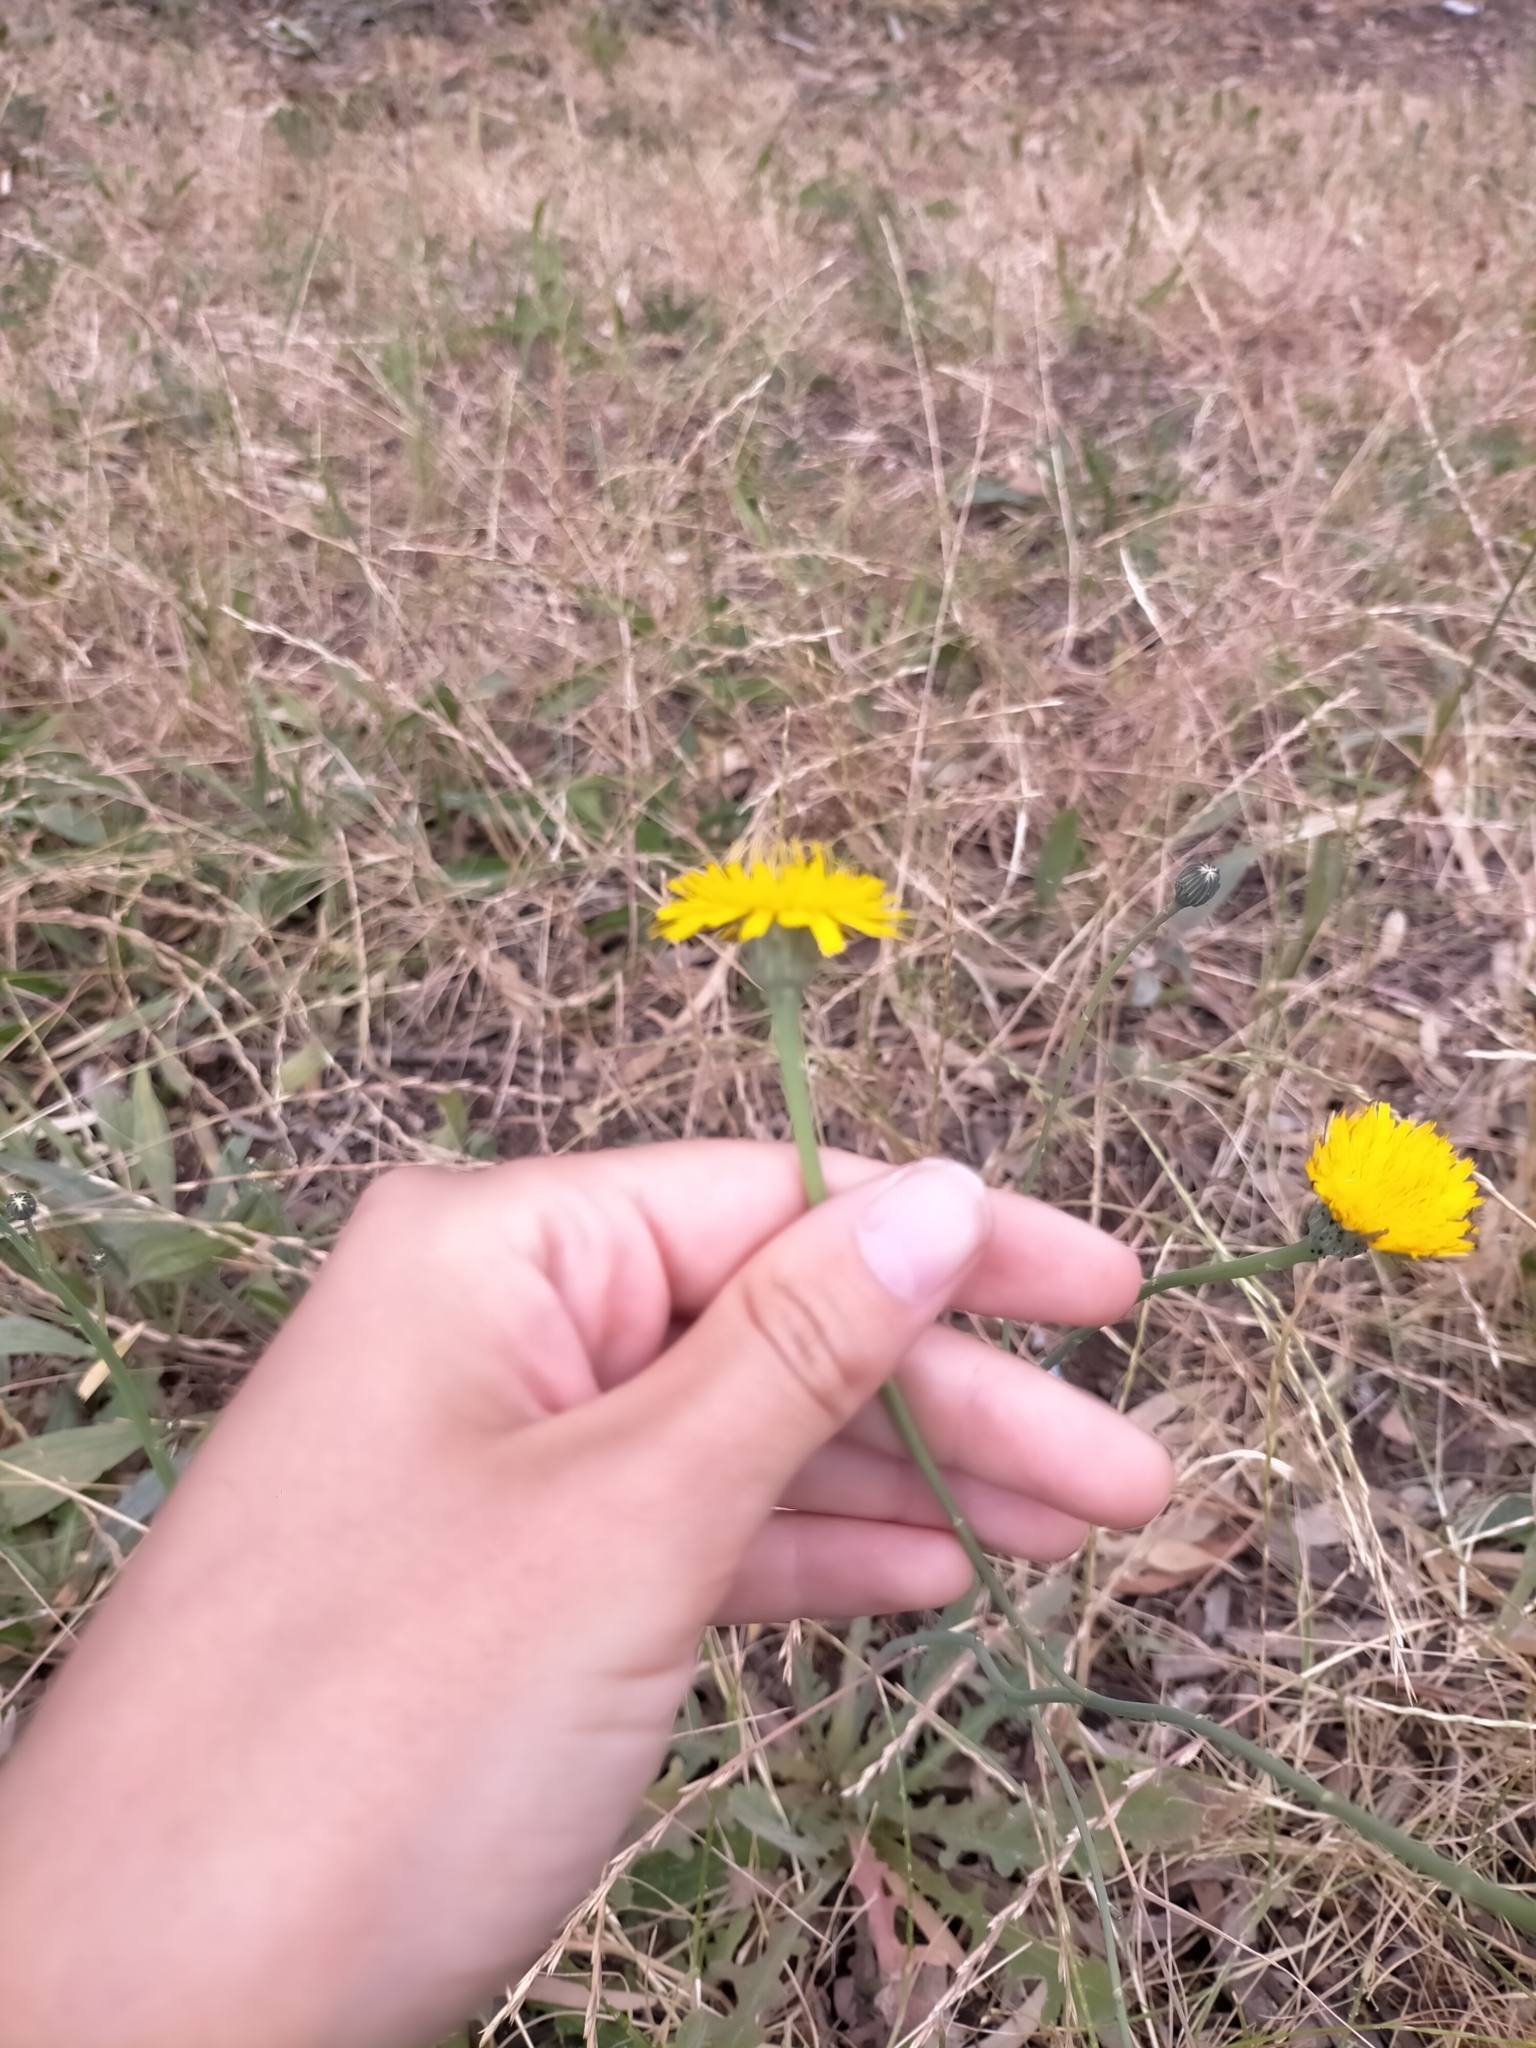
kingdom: Plantae
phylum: Tracheophyta
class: Magnoliopsida
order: Asterales
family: Asteraceae
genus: Hypochaeris
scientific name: Hypochaeris radicata
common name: Flatweed
